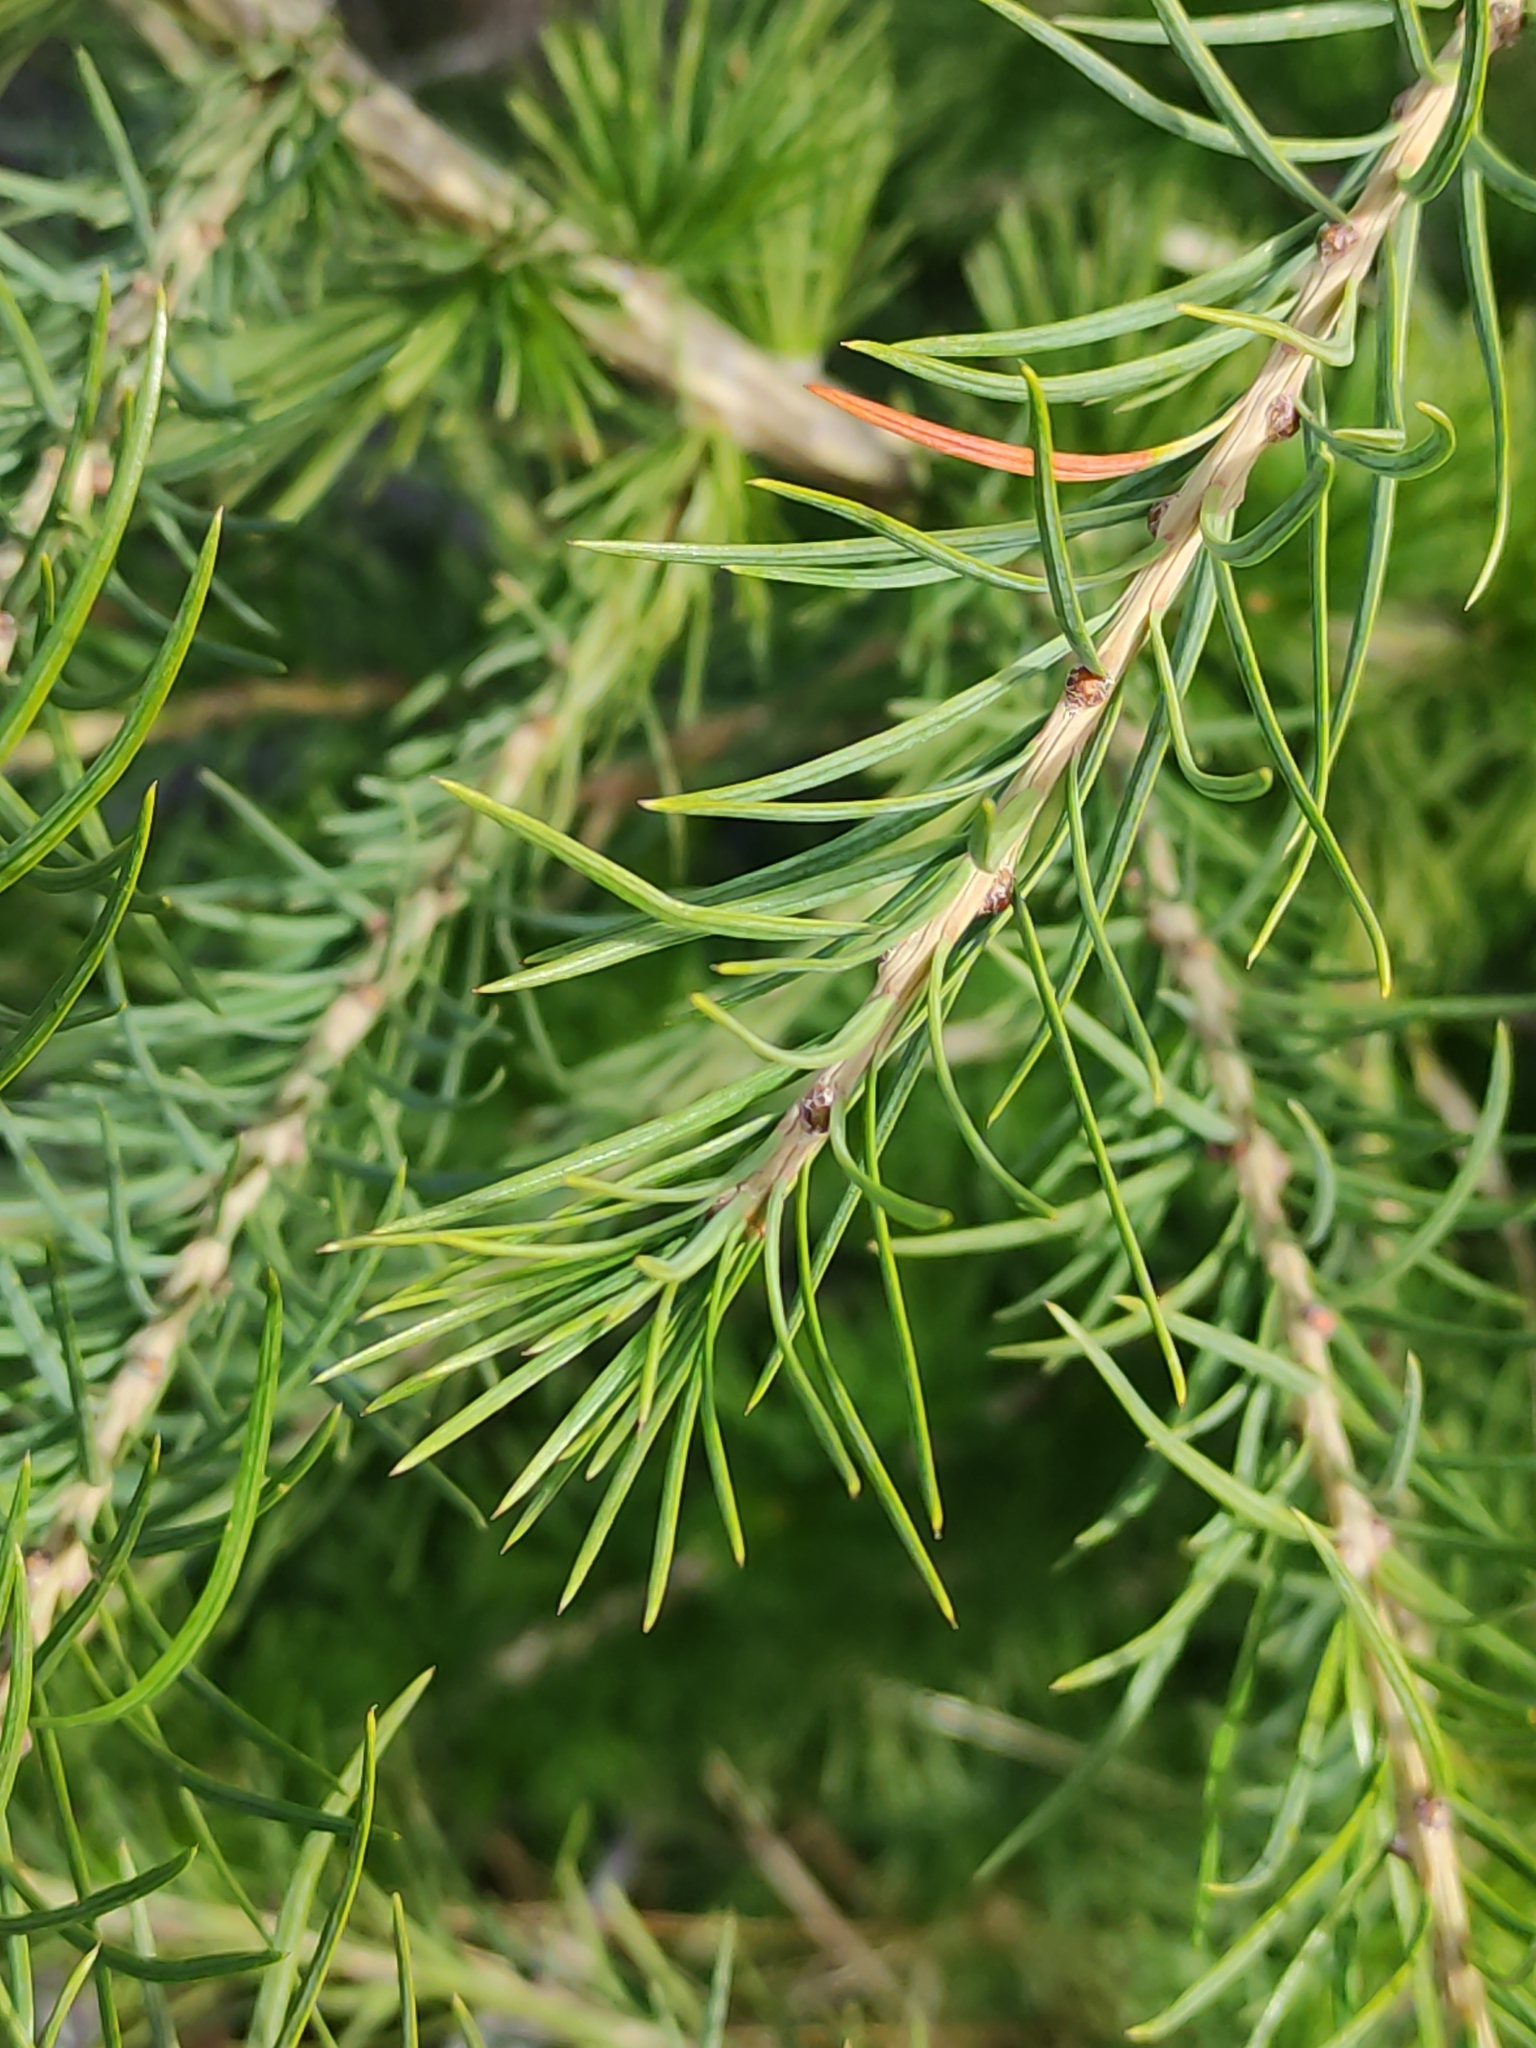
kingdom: Plantae
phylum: Tracheophyta
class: Pinopsida
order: Pinales
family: Pinaceae
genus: Larix
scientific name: Larix decidua
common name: European larch
